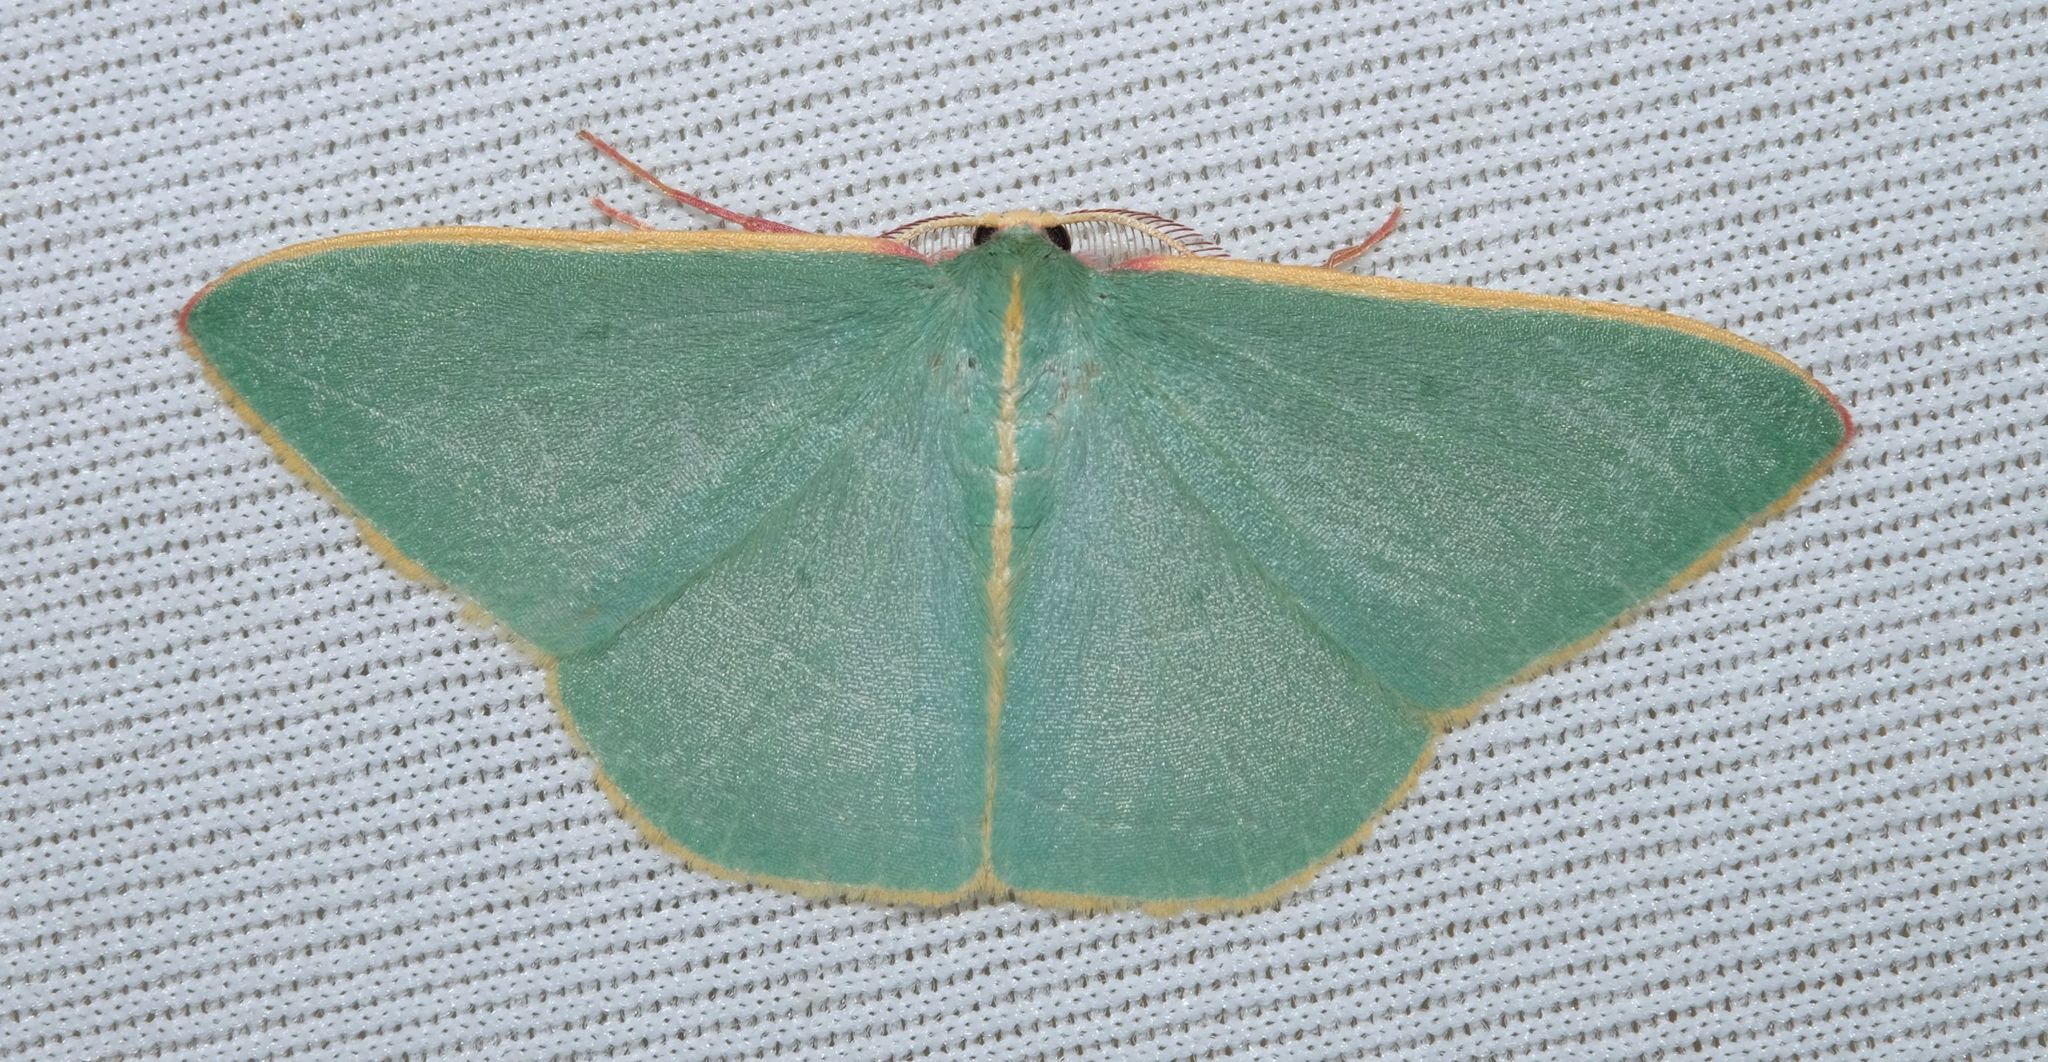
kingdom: Animalia
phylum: Arthropoda
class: Insecta
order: Lepidoptera
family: Geometridae
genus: Chlorocoma
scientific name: Chlorocoma assimilis
